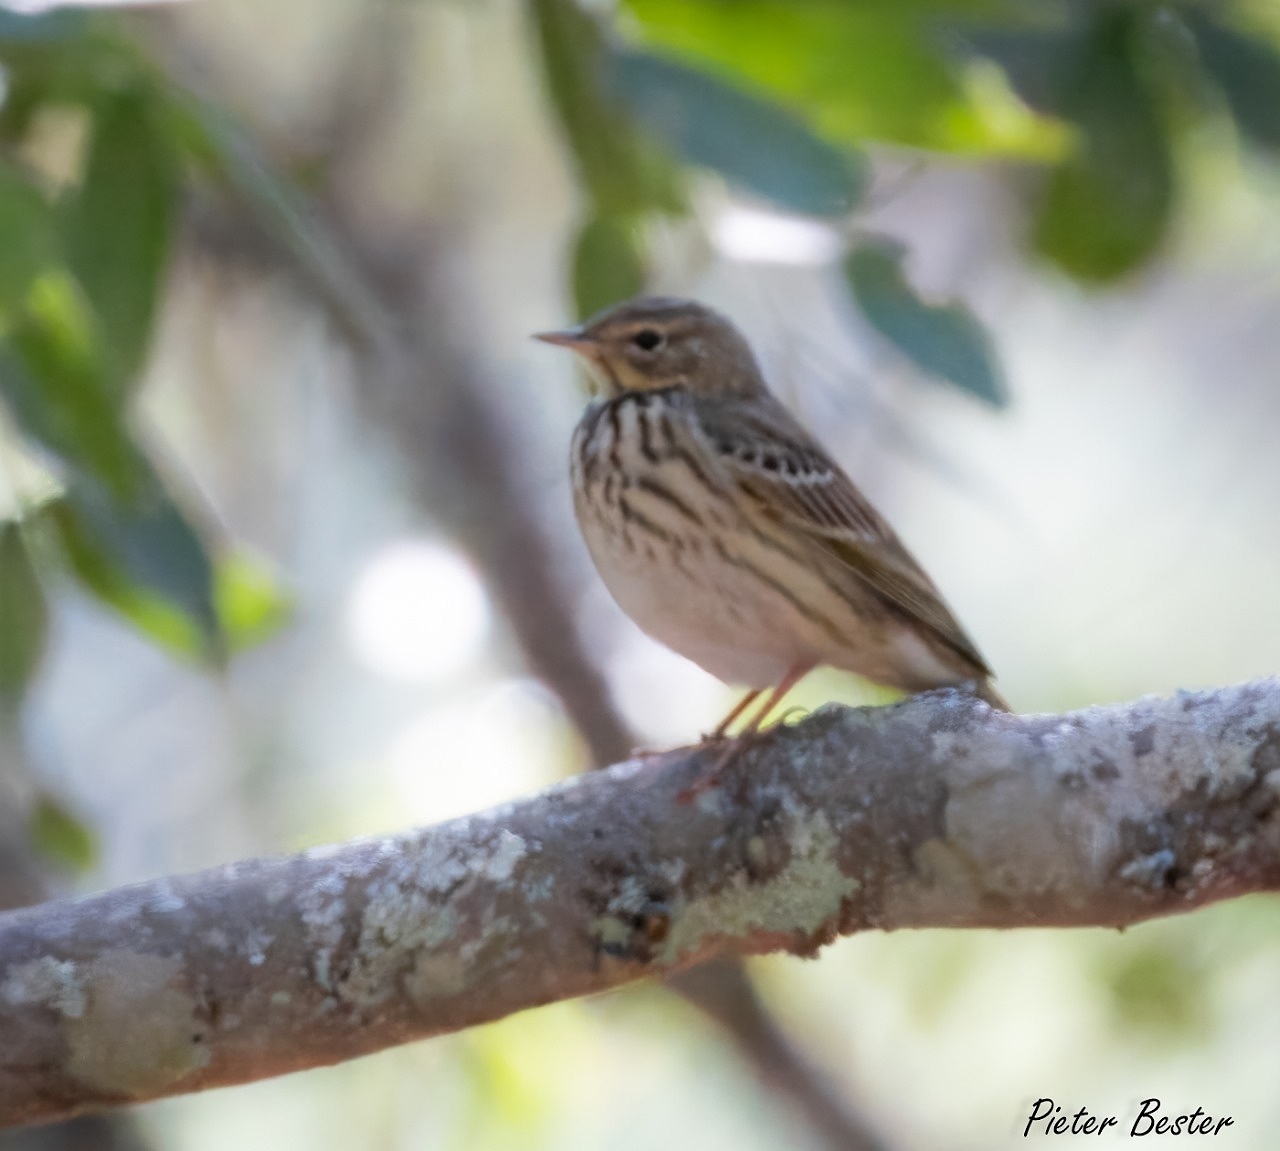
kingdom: Animalia
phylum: Chordata
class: Aves
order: Passeriformes
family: Motacillidae
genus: Anthus
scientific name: Anthus trivialis
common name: Tree pipit
